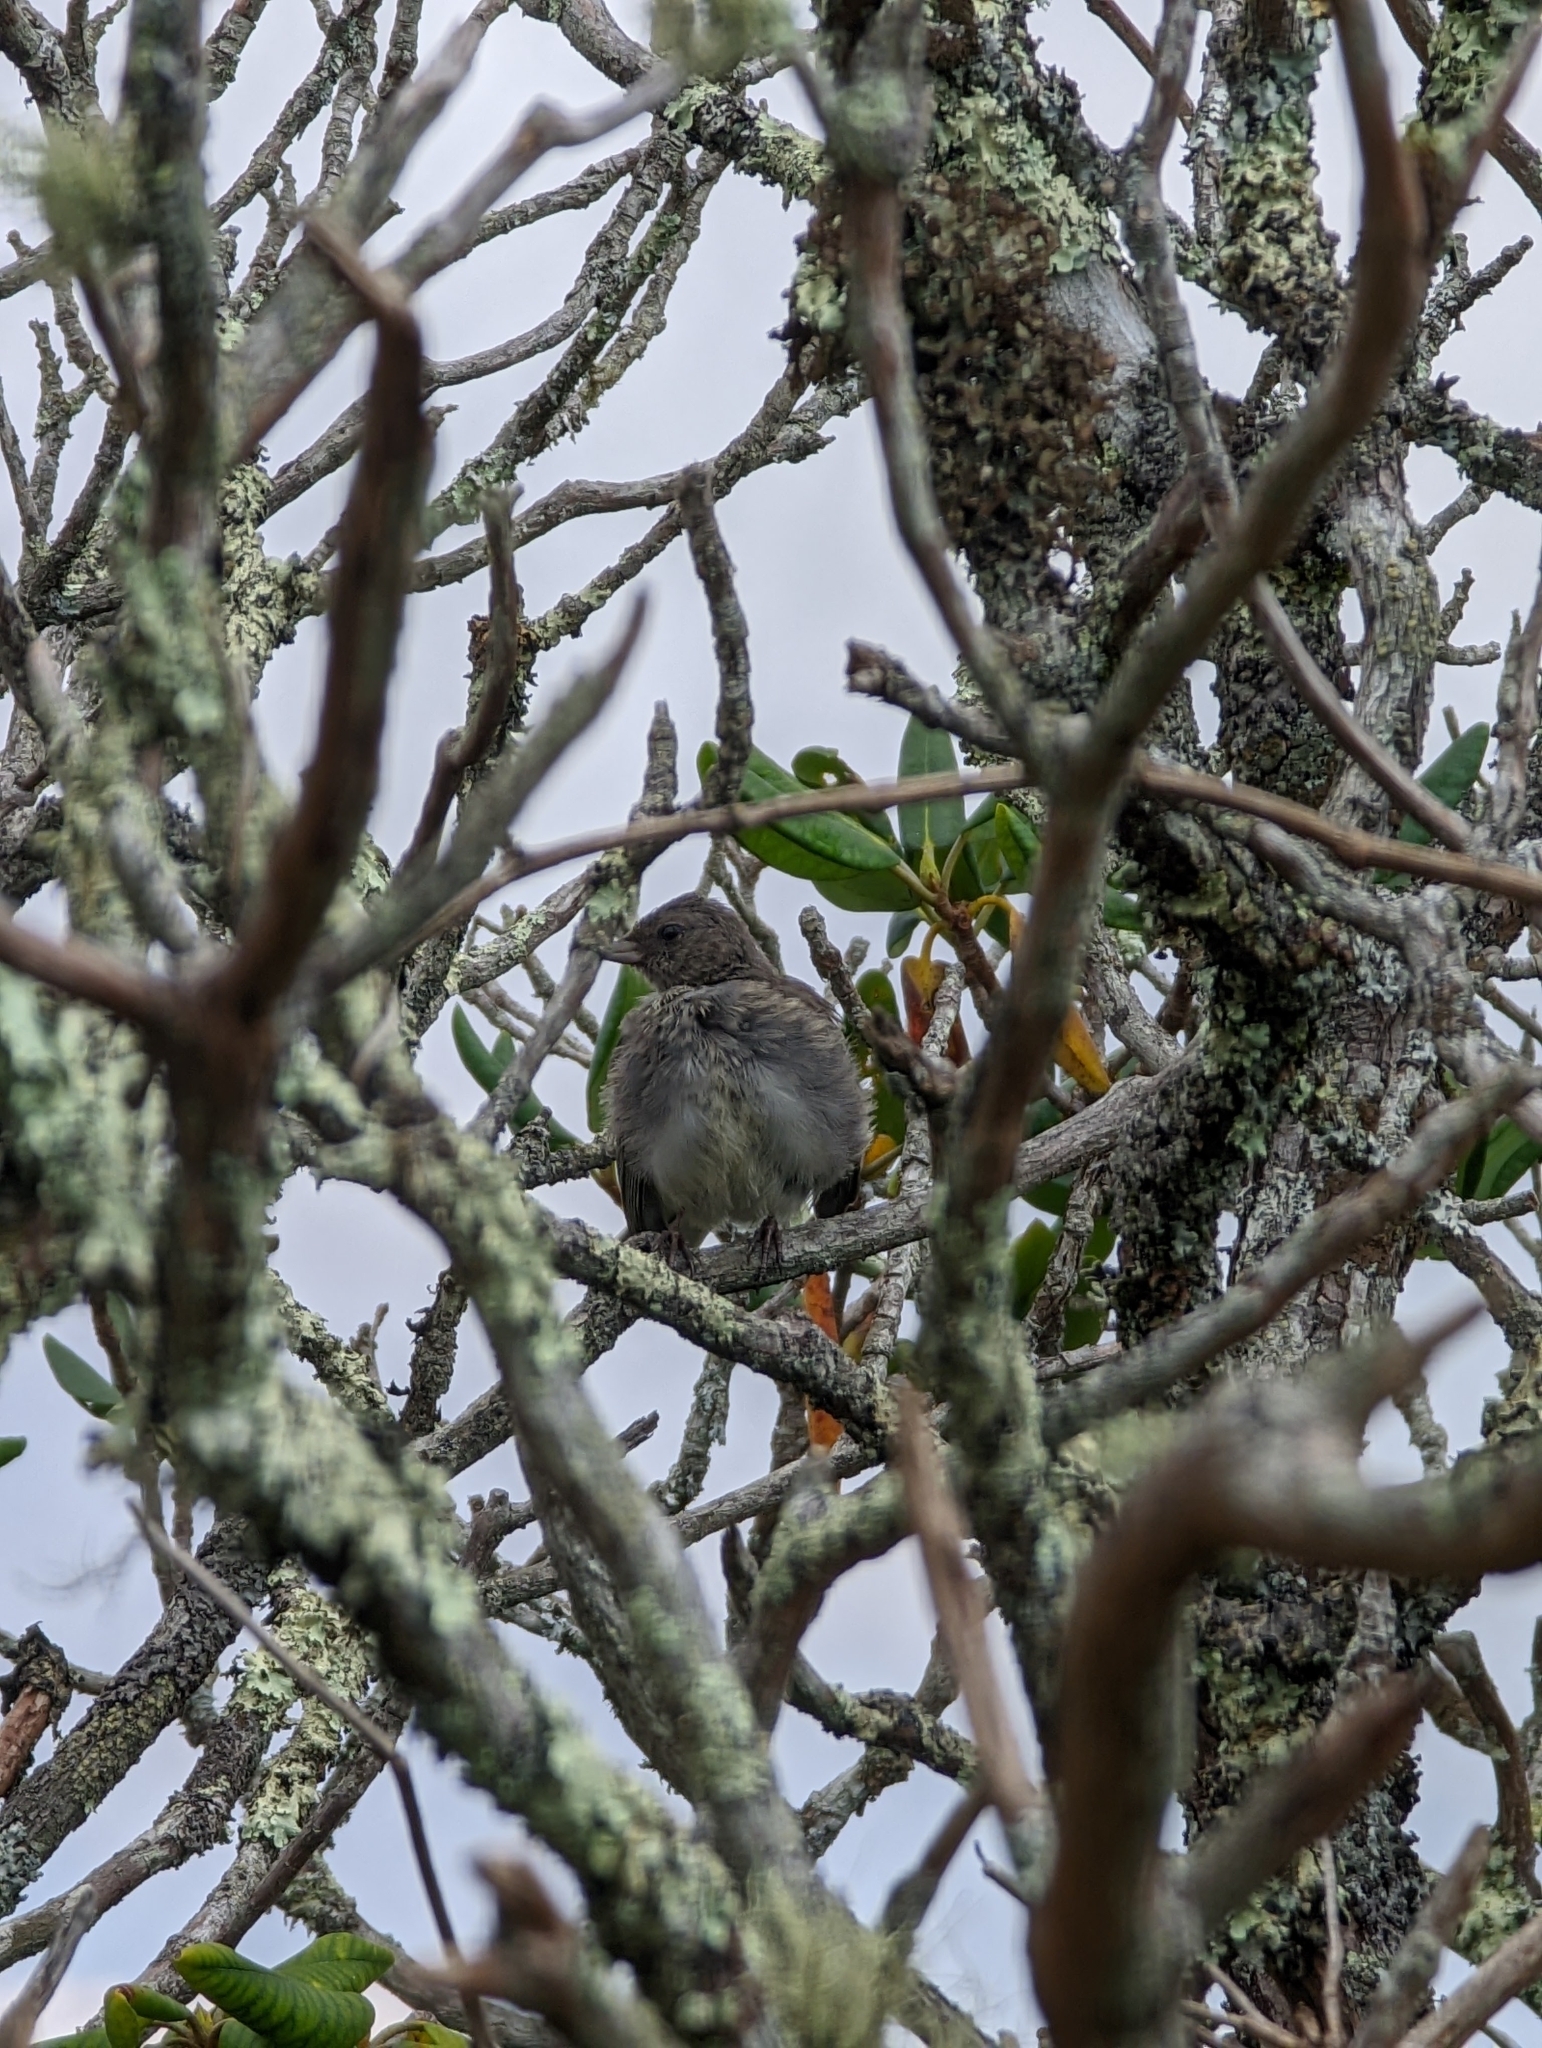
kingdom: Animalia
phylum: Chordata
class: Aves
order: Passeriformes
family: Passerellidae
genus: Junco
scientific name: Junco hyemalis
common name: Dark-eyed junco
